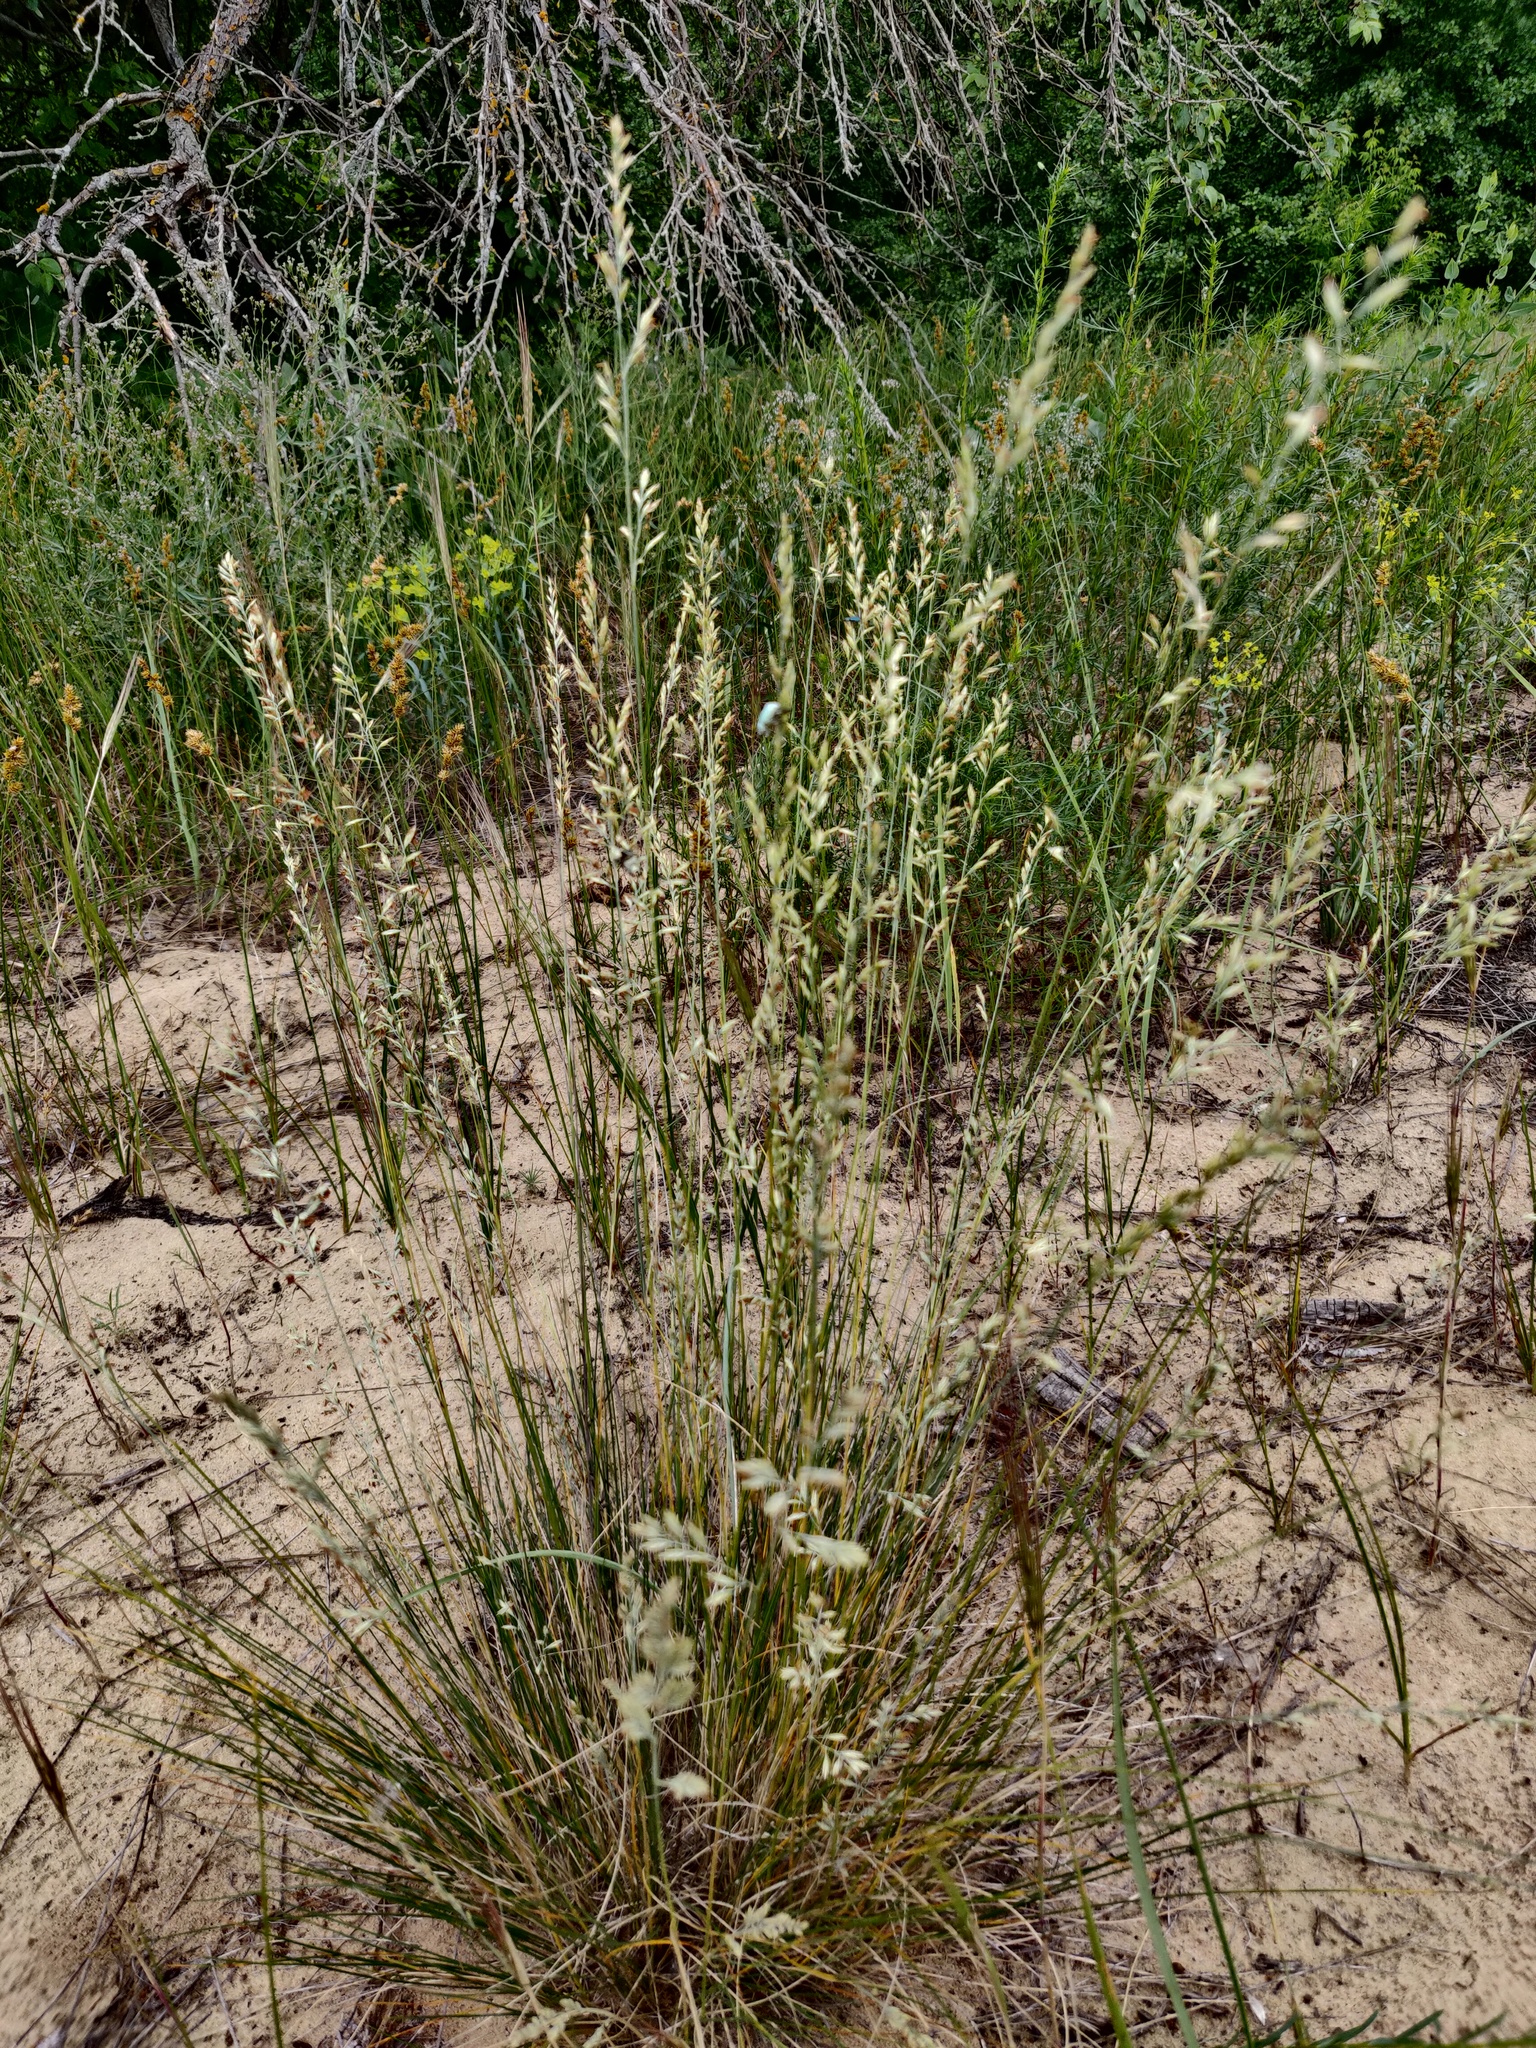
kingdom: Plantae
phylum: Tracheophyta
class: Liliopsida
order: Poales
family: Poaceae
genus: Festuca
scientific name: Festuca beckeri
